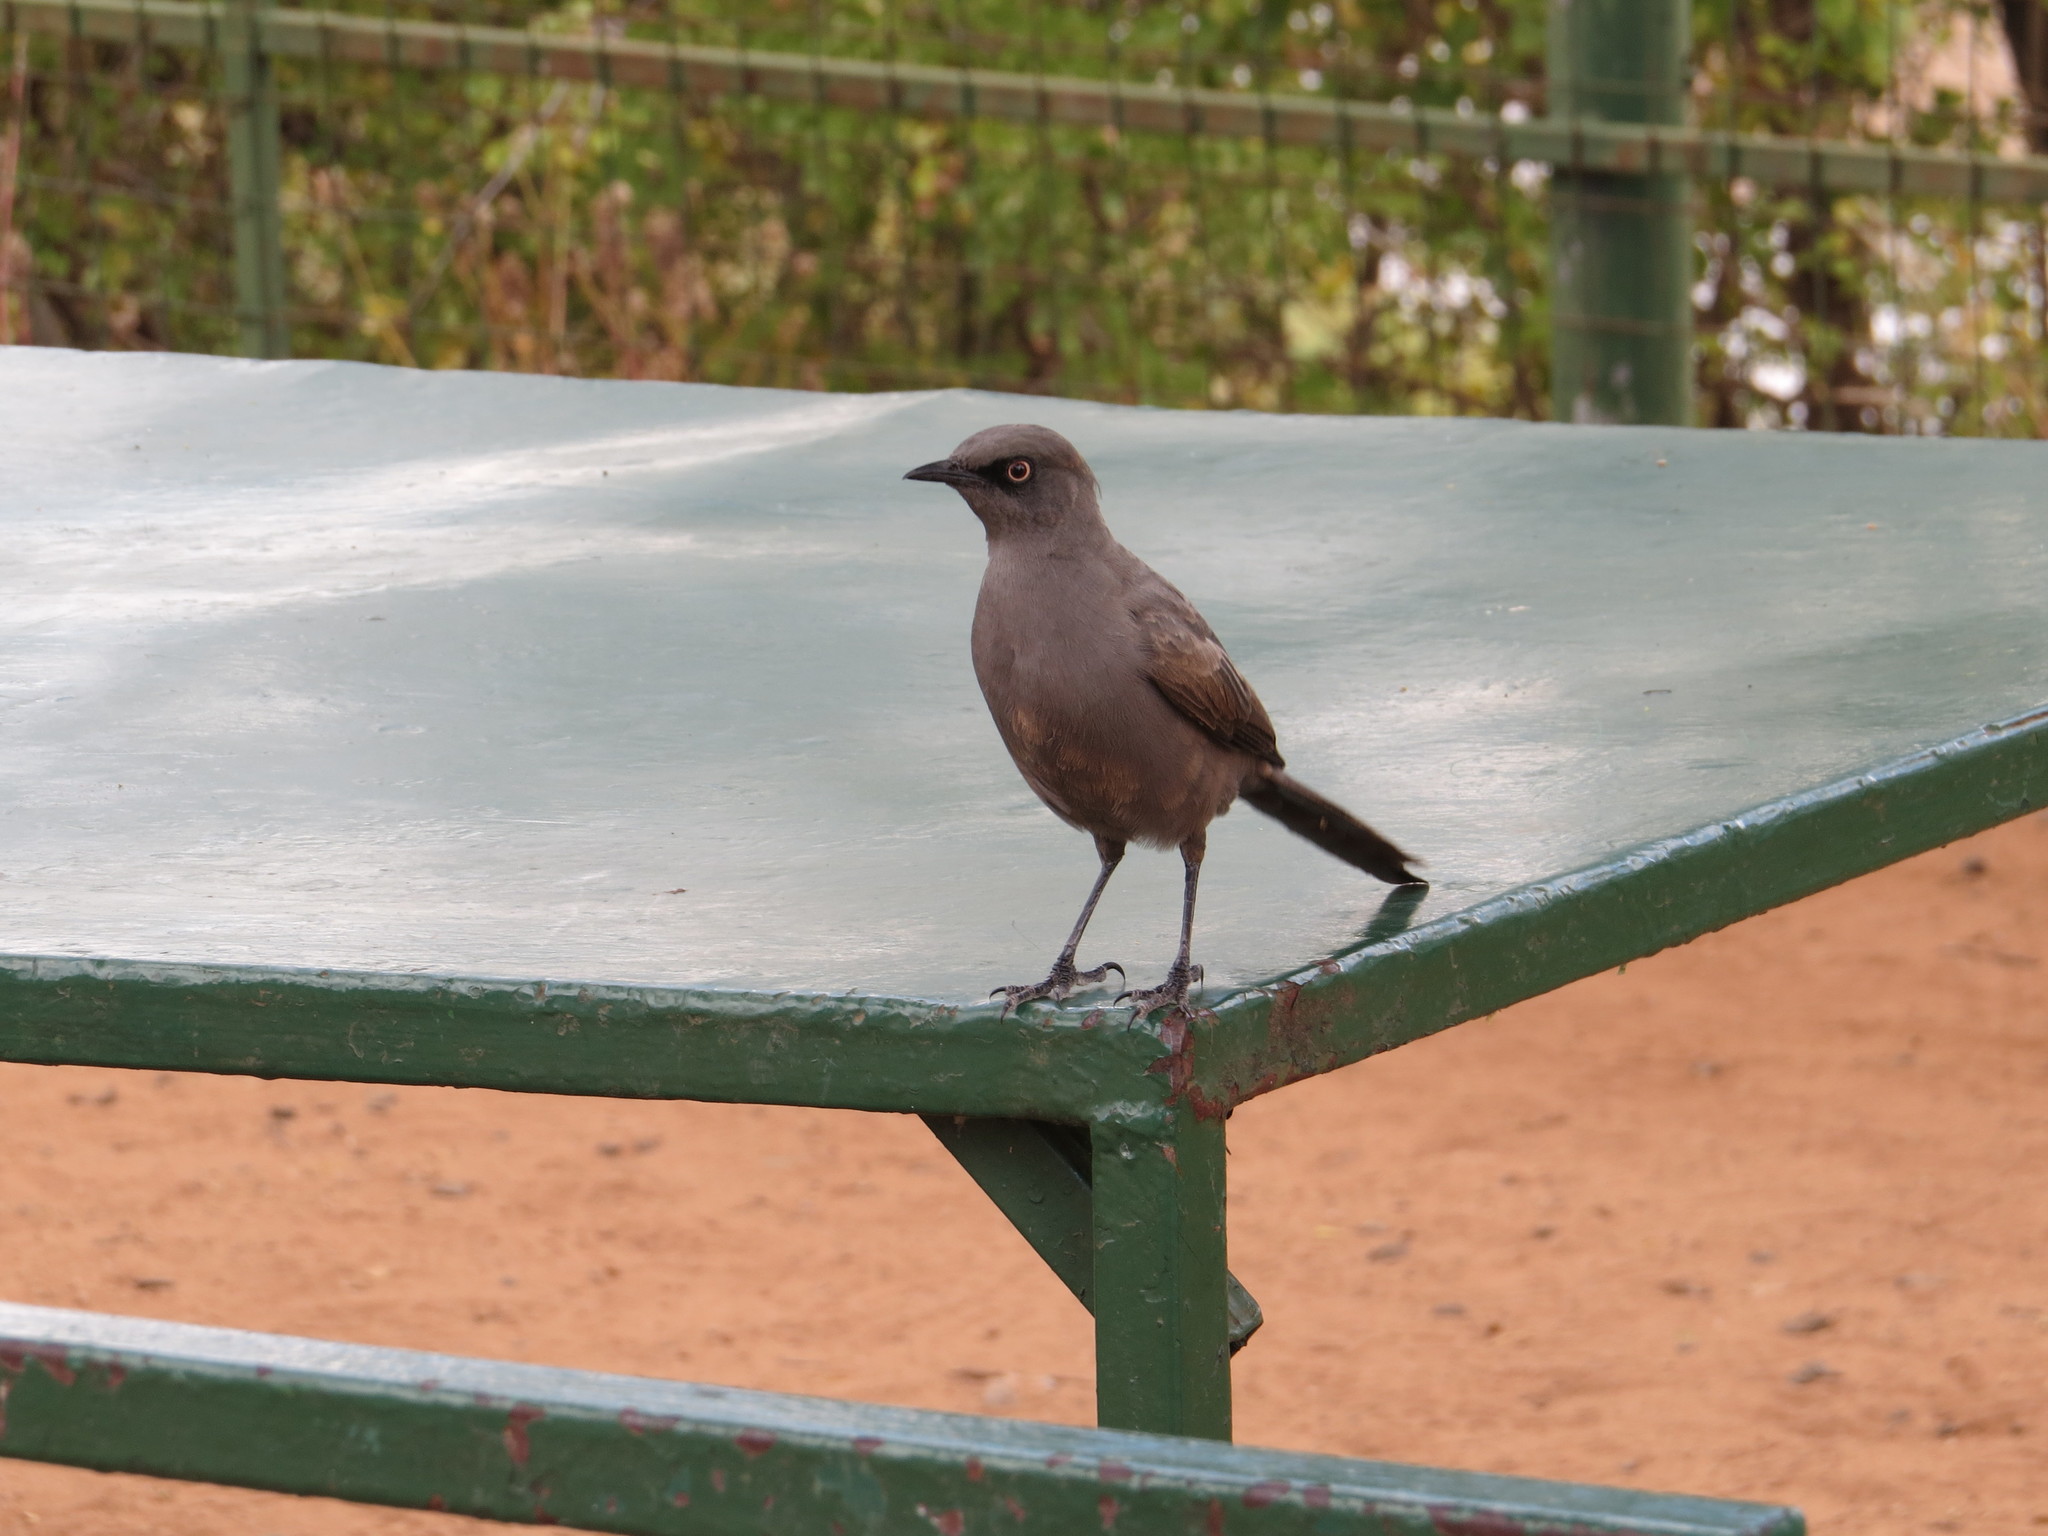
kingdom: Animalia
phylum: Chordata
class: Aves
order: Passeriformes
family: Sturnidae
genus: Lamprotornis
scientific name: Lamprotornis unicolor
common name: Ashy starling
